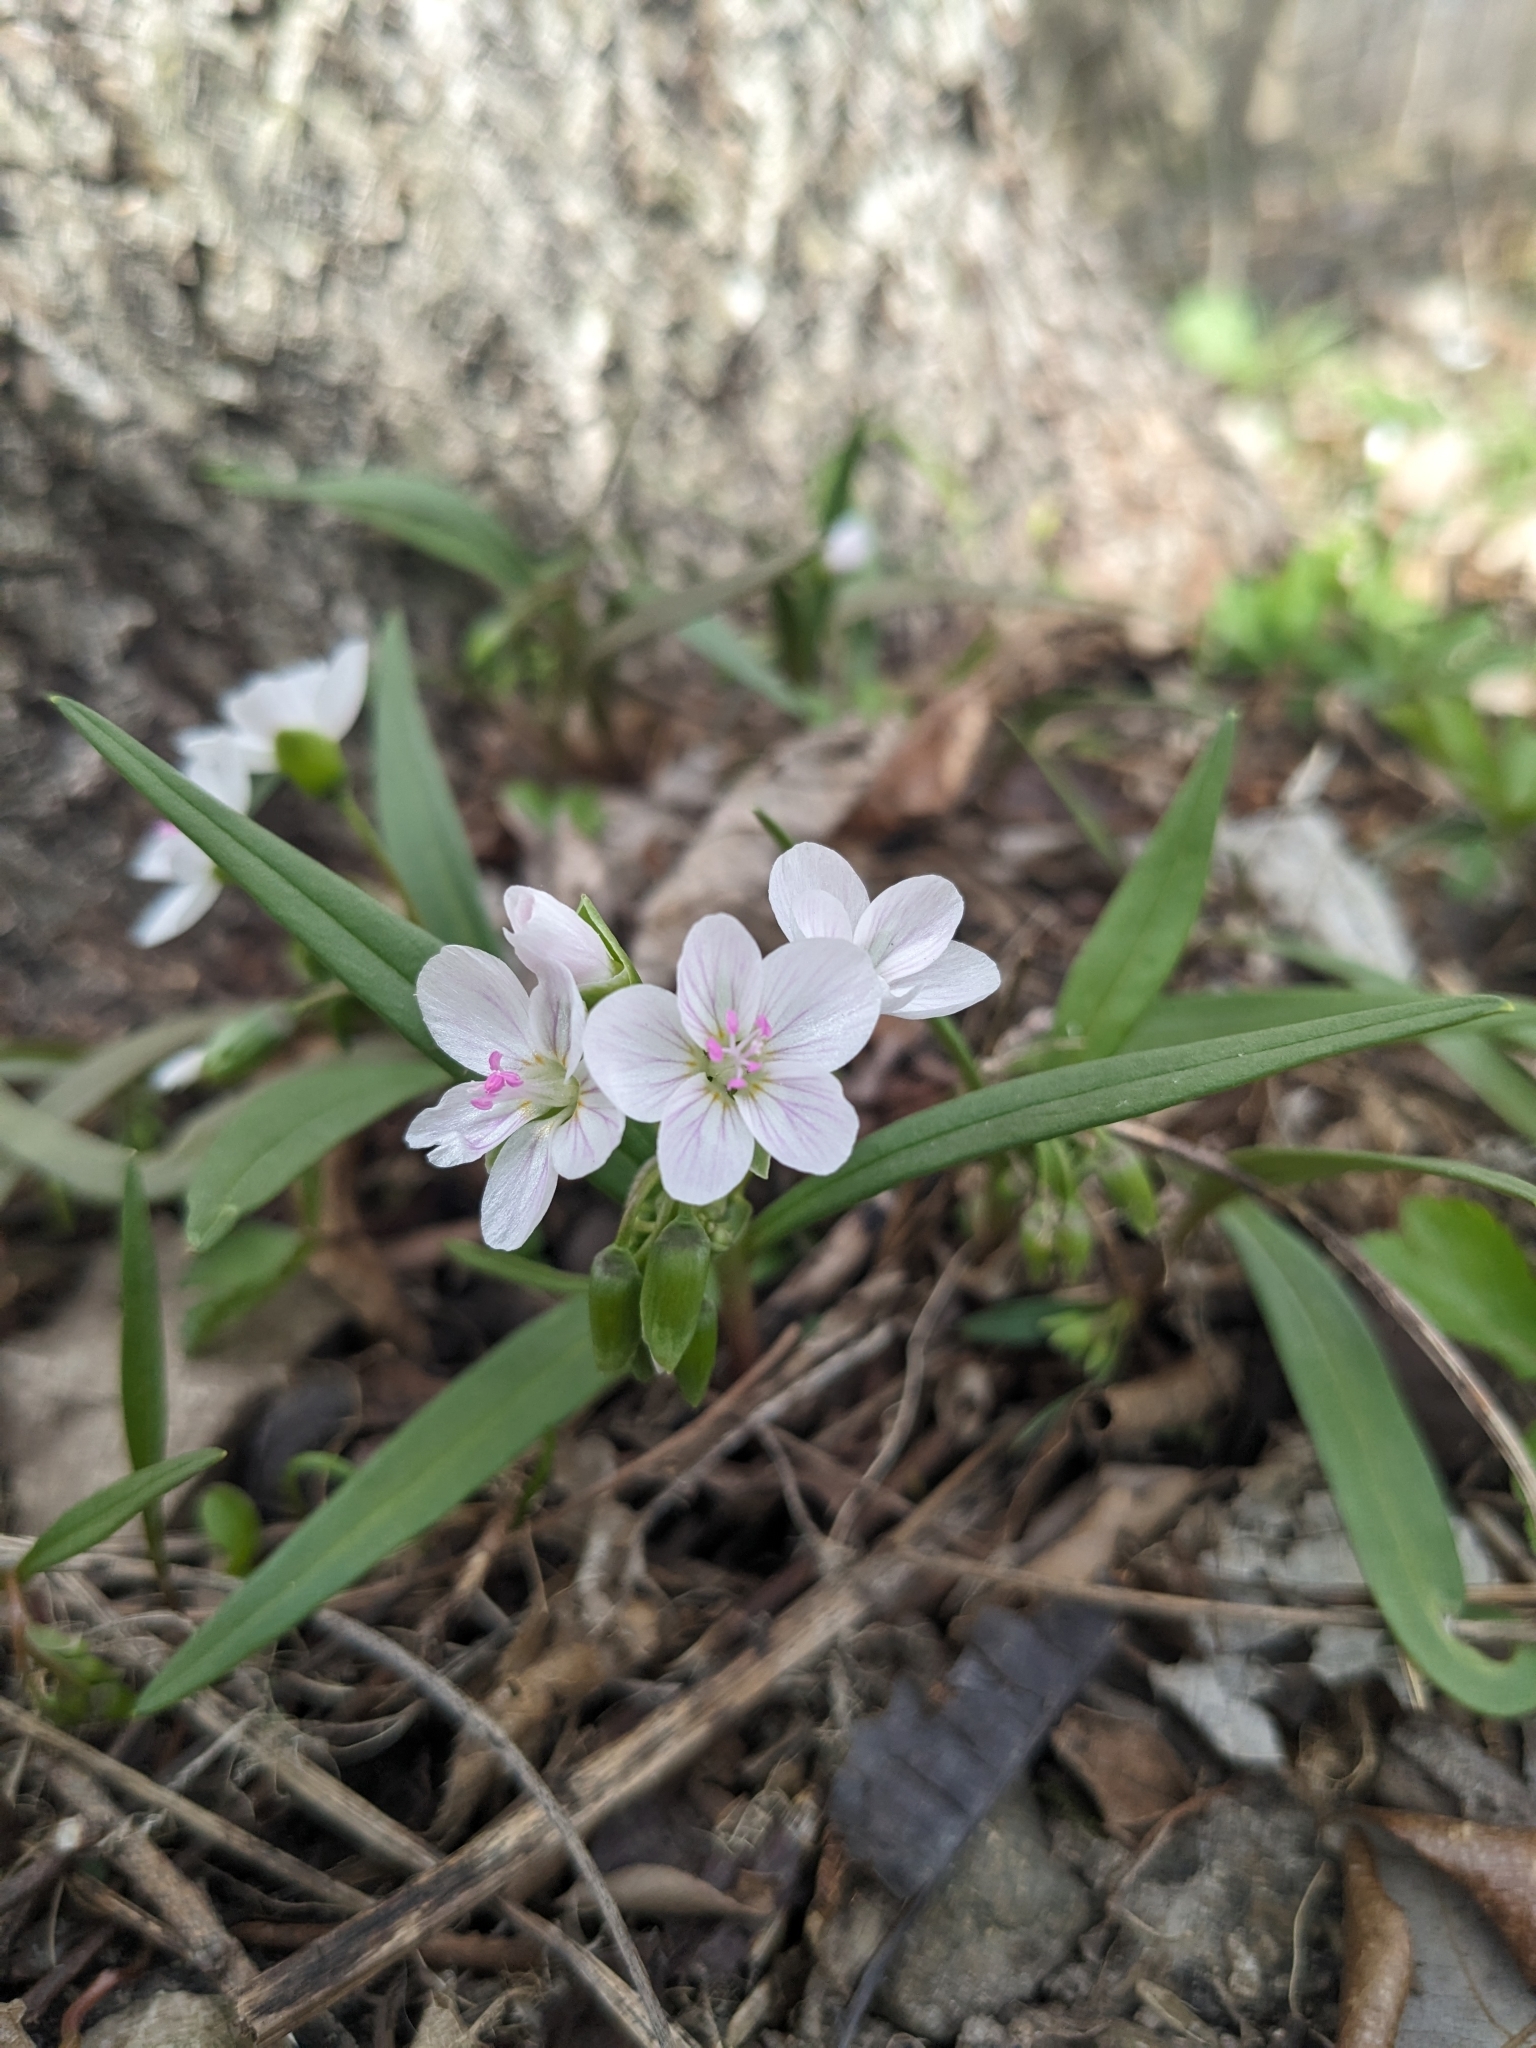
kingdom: Plantae
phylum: Tracheophyta
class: Magnoliopsida
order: Caryophyllales
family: Montiaceae
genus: Claytonia
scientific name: Claytonia virginica
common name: Virginia springbeauty
